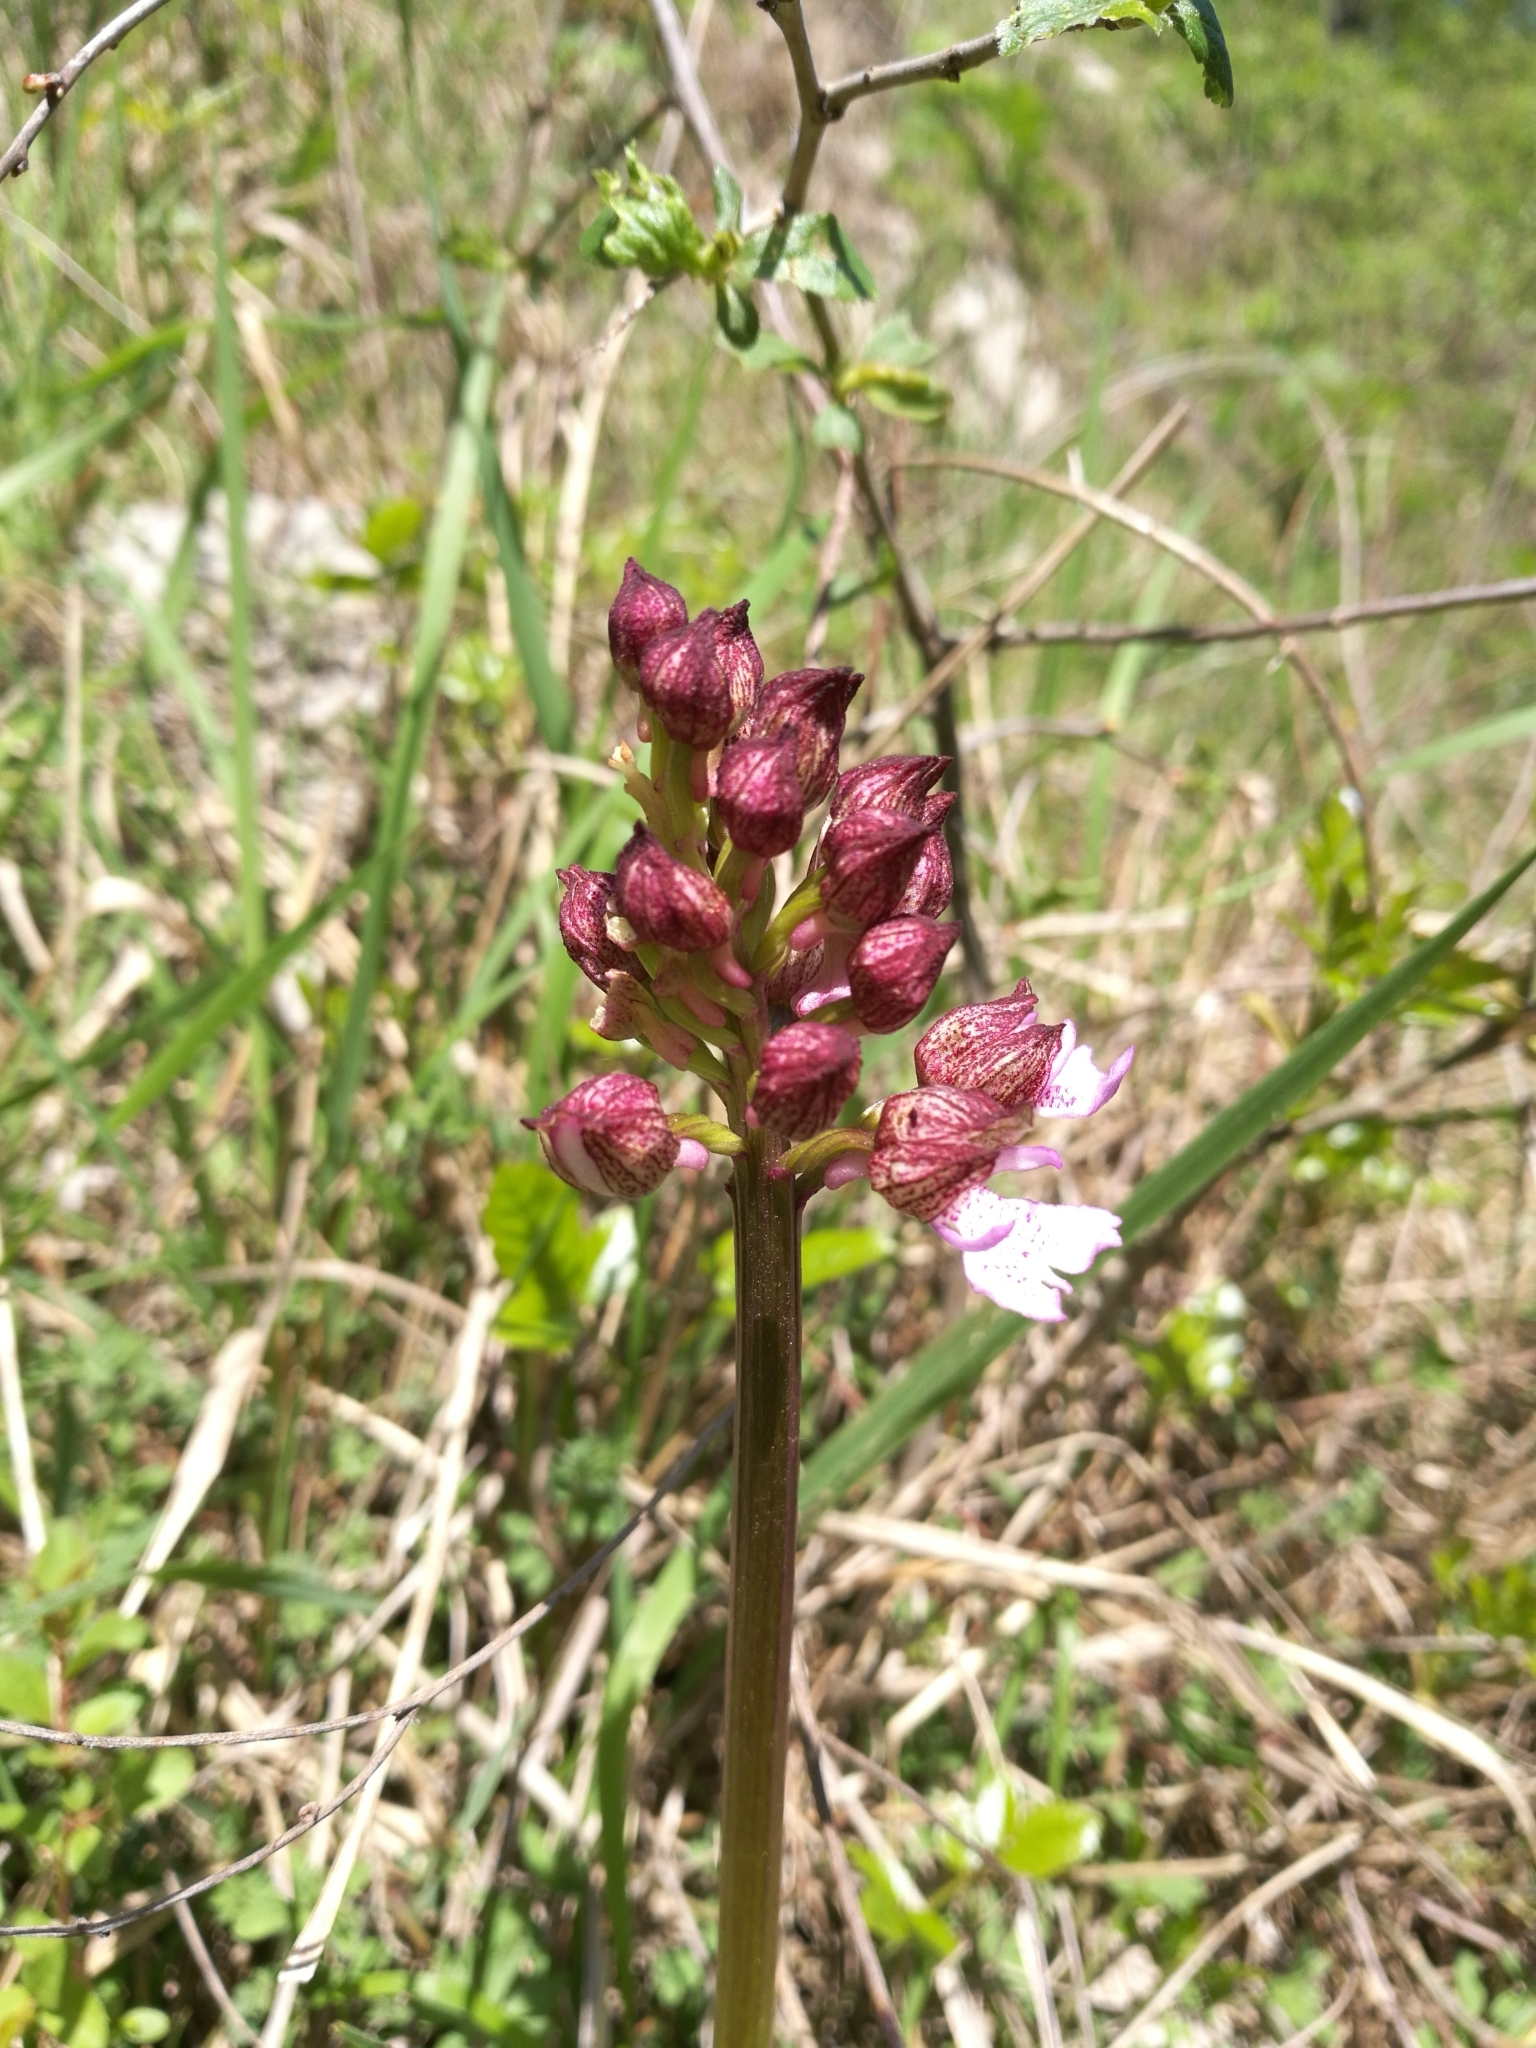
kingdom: Plantae
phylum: Tracheophyta
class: Liliopsida
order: Asparagales
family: Orchidaceae
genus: Orchis
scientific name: Orchis purpurea
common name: Lady orchid
